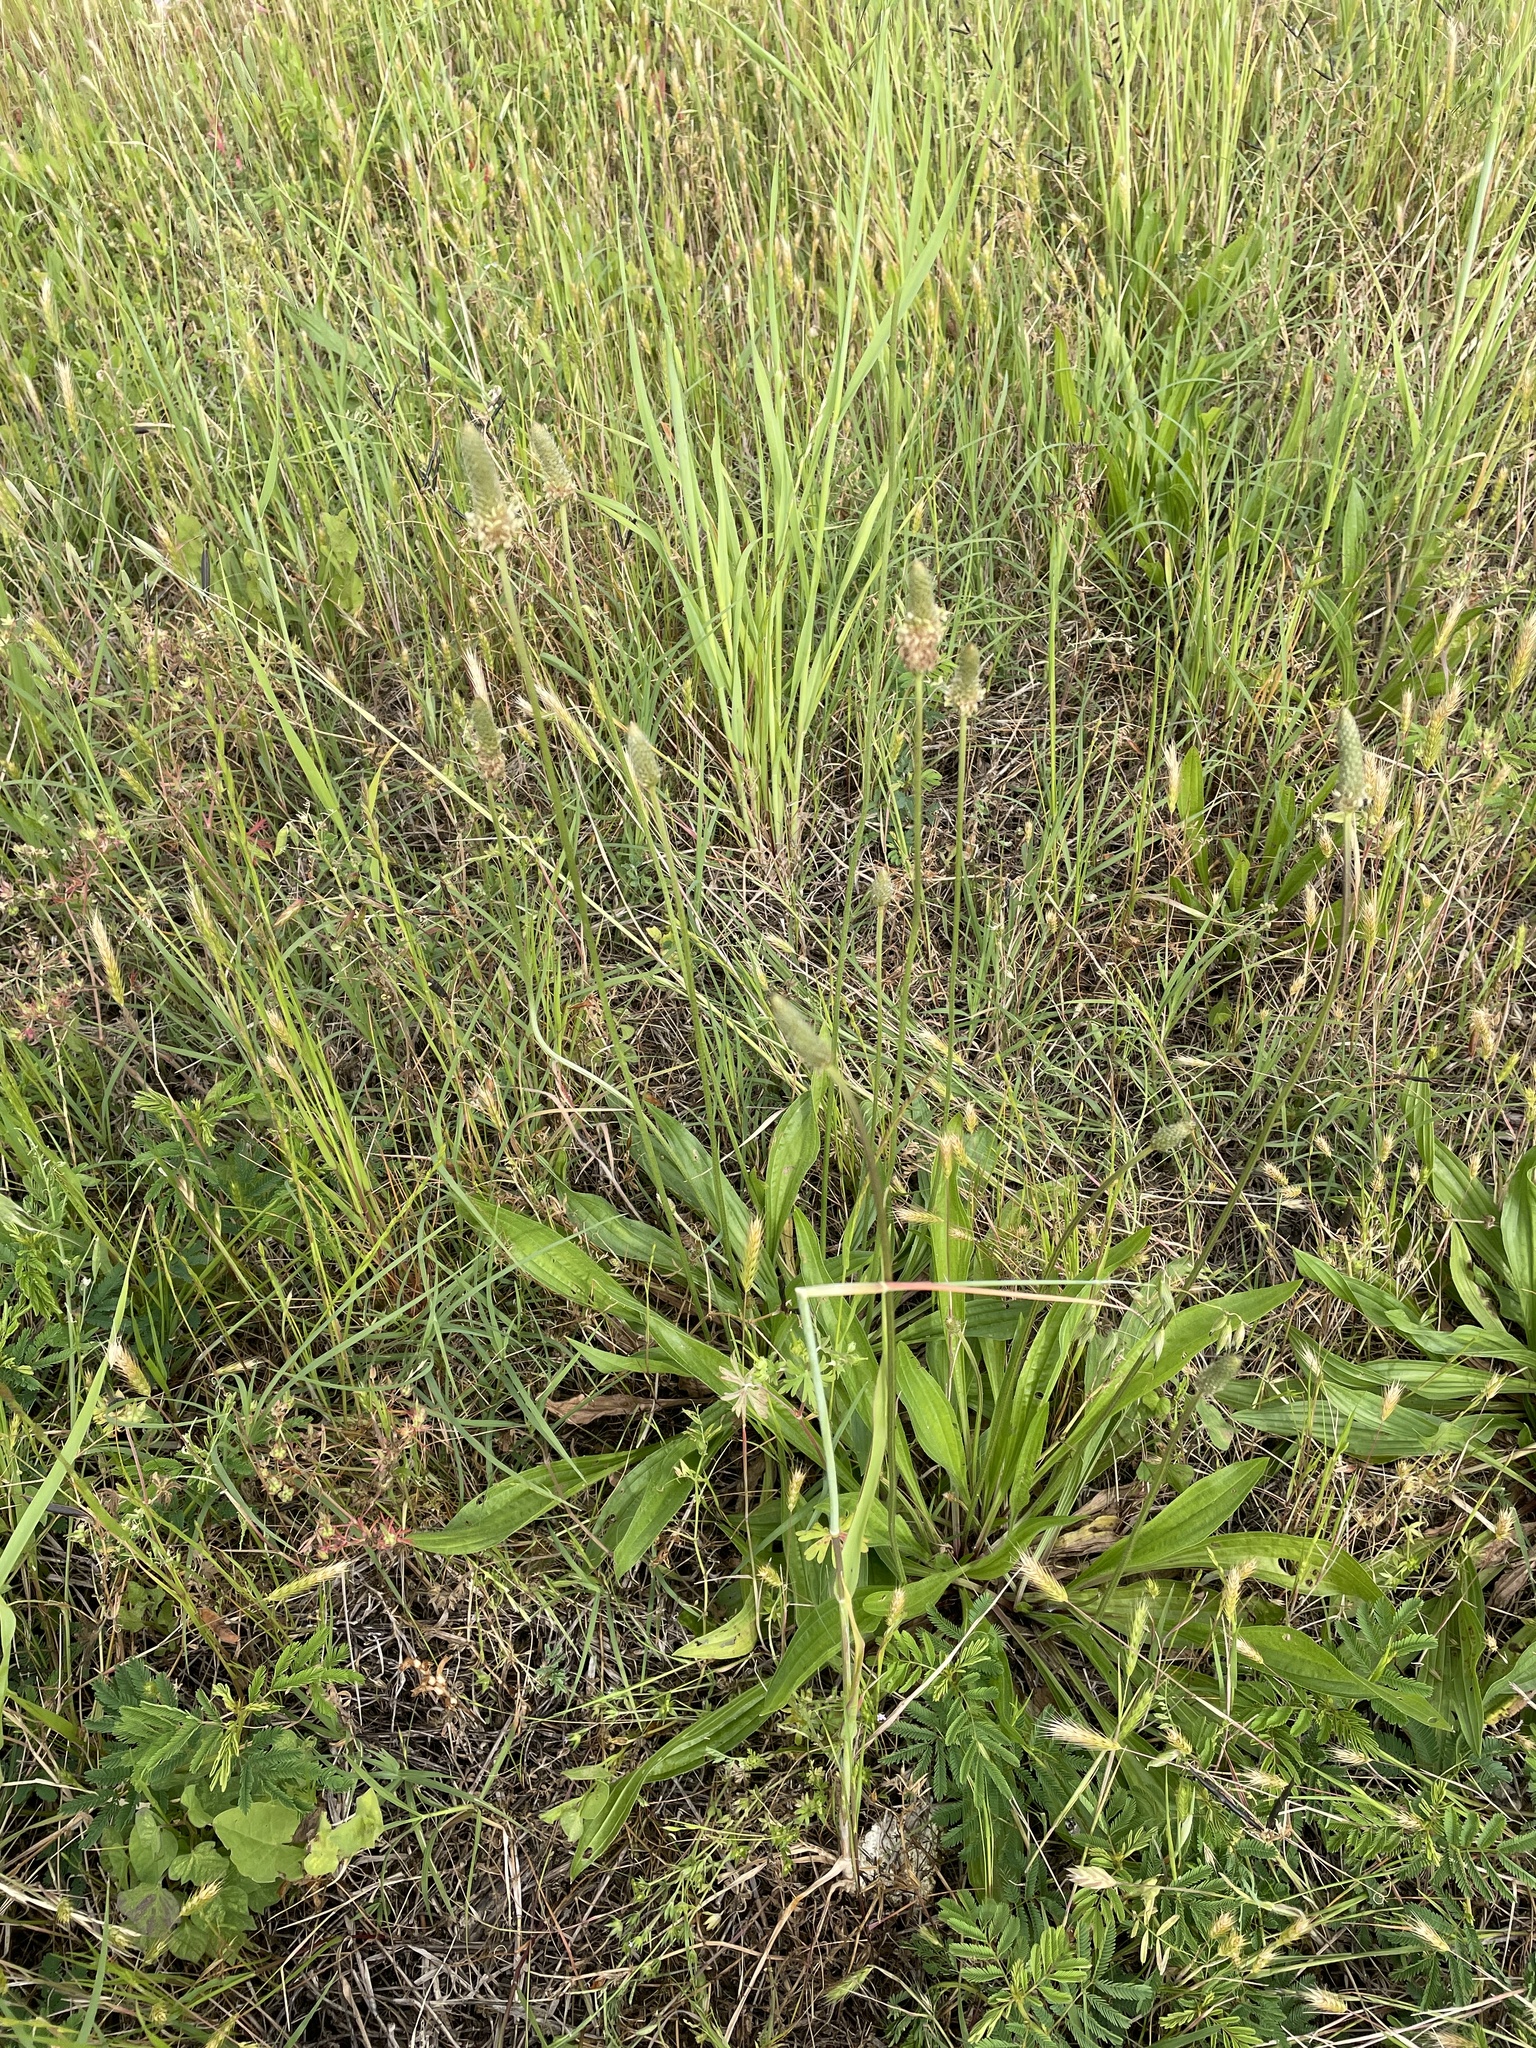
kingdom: Plantae
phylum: Tracheophyta
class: Magnoliopsida
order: Lamiales
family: Plantaginaceae
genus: Plantago
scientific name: Plantago lanceolata
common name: Ribwort plantain
